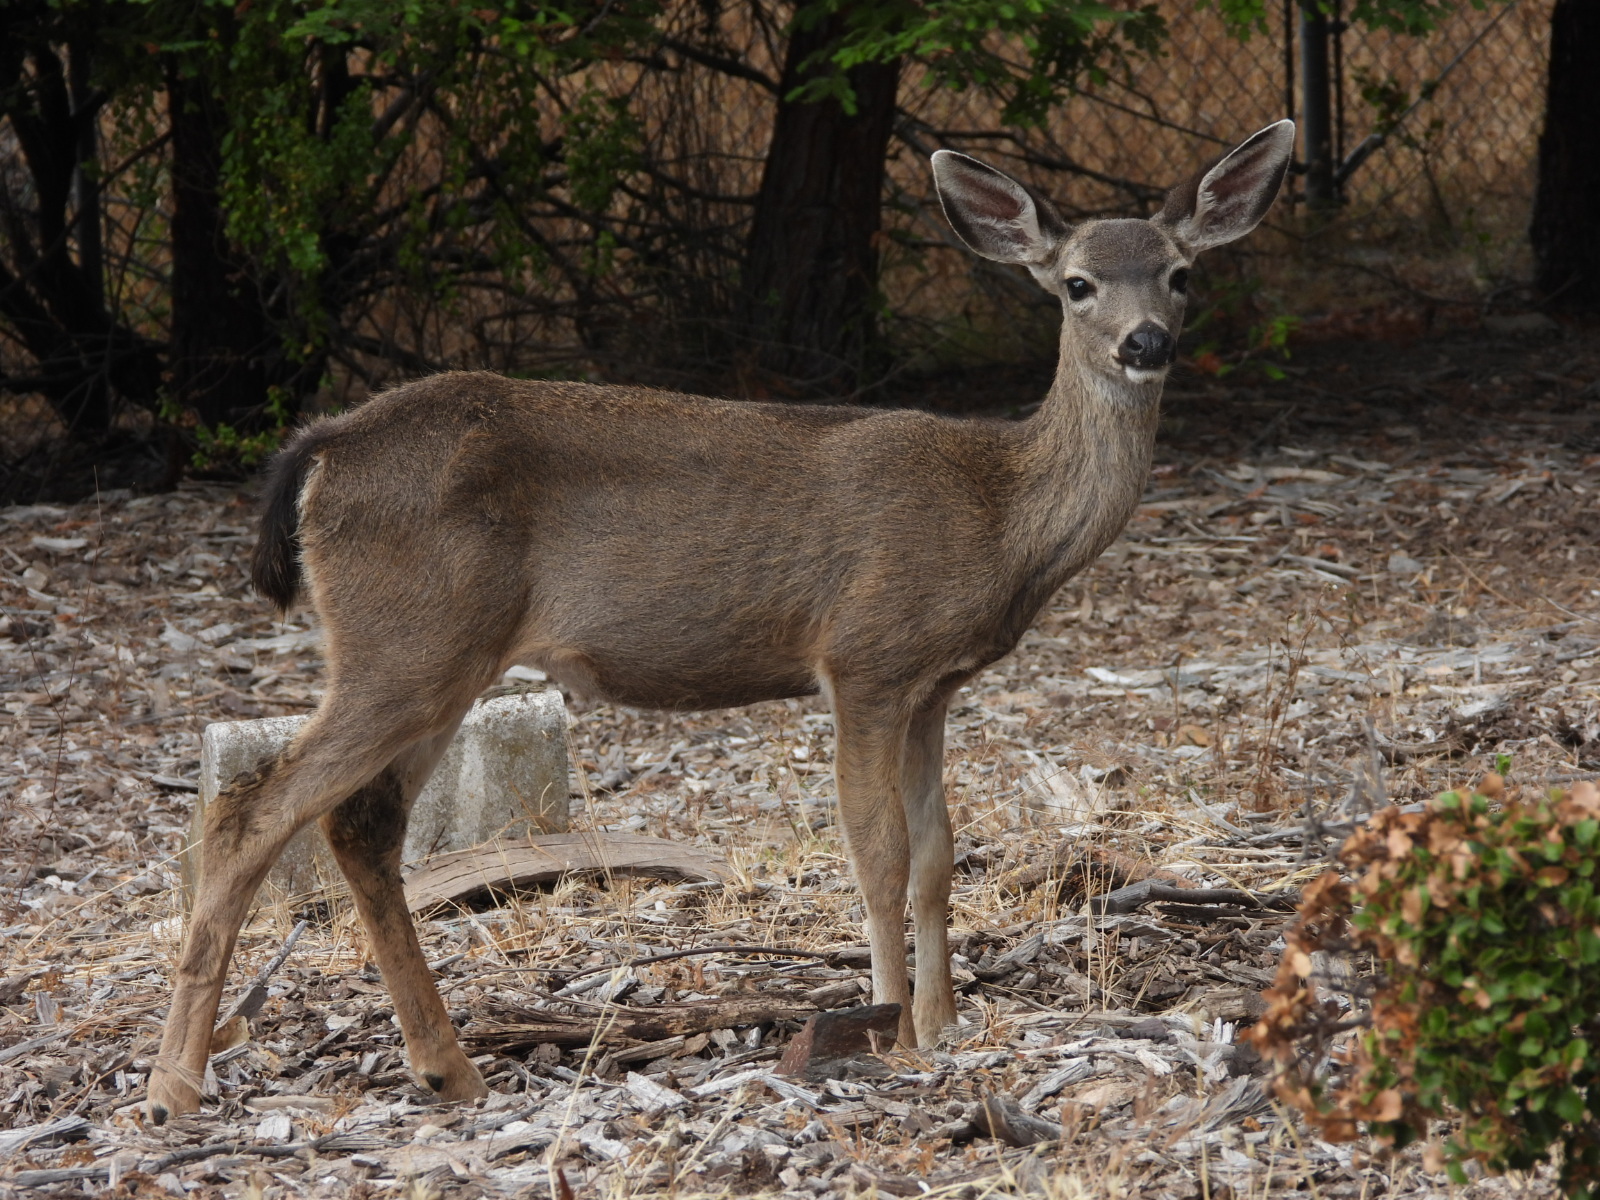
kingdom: Animalia
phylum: Chordata
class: Mammalia
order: Artiodactyla
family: Cervidae
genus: Odocoileus
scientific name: Odocoileus hemionus
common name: Mule deer
